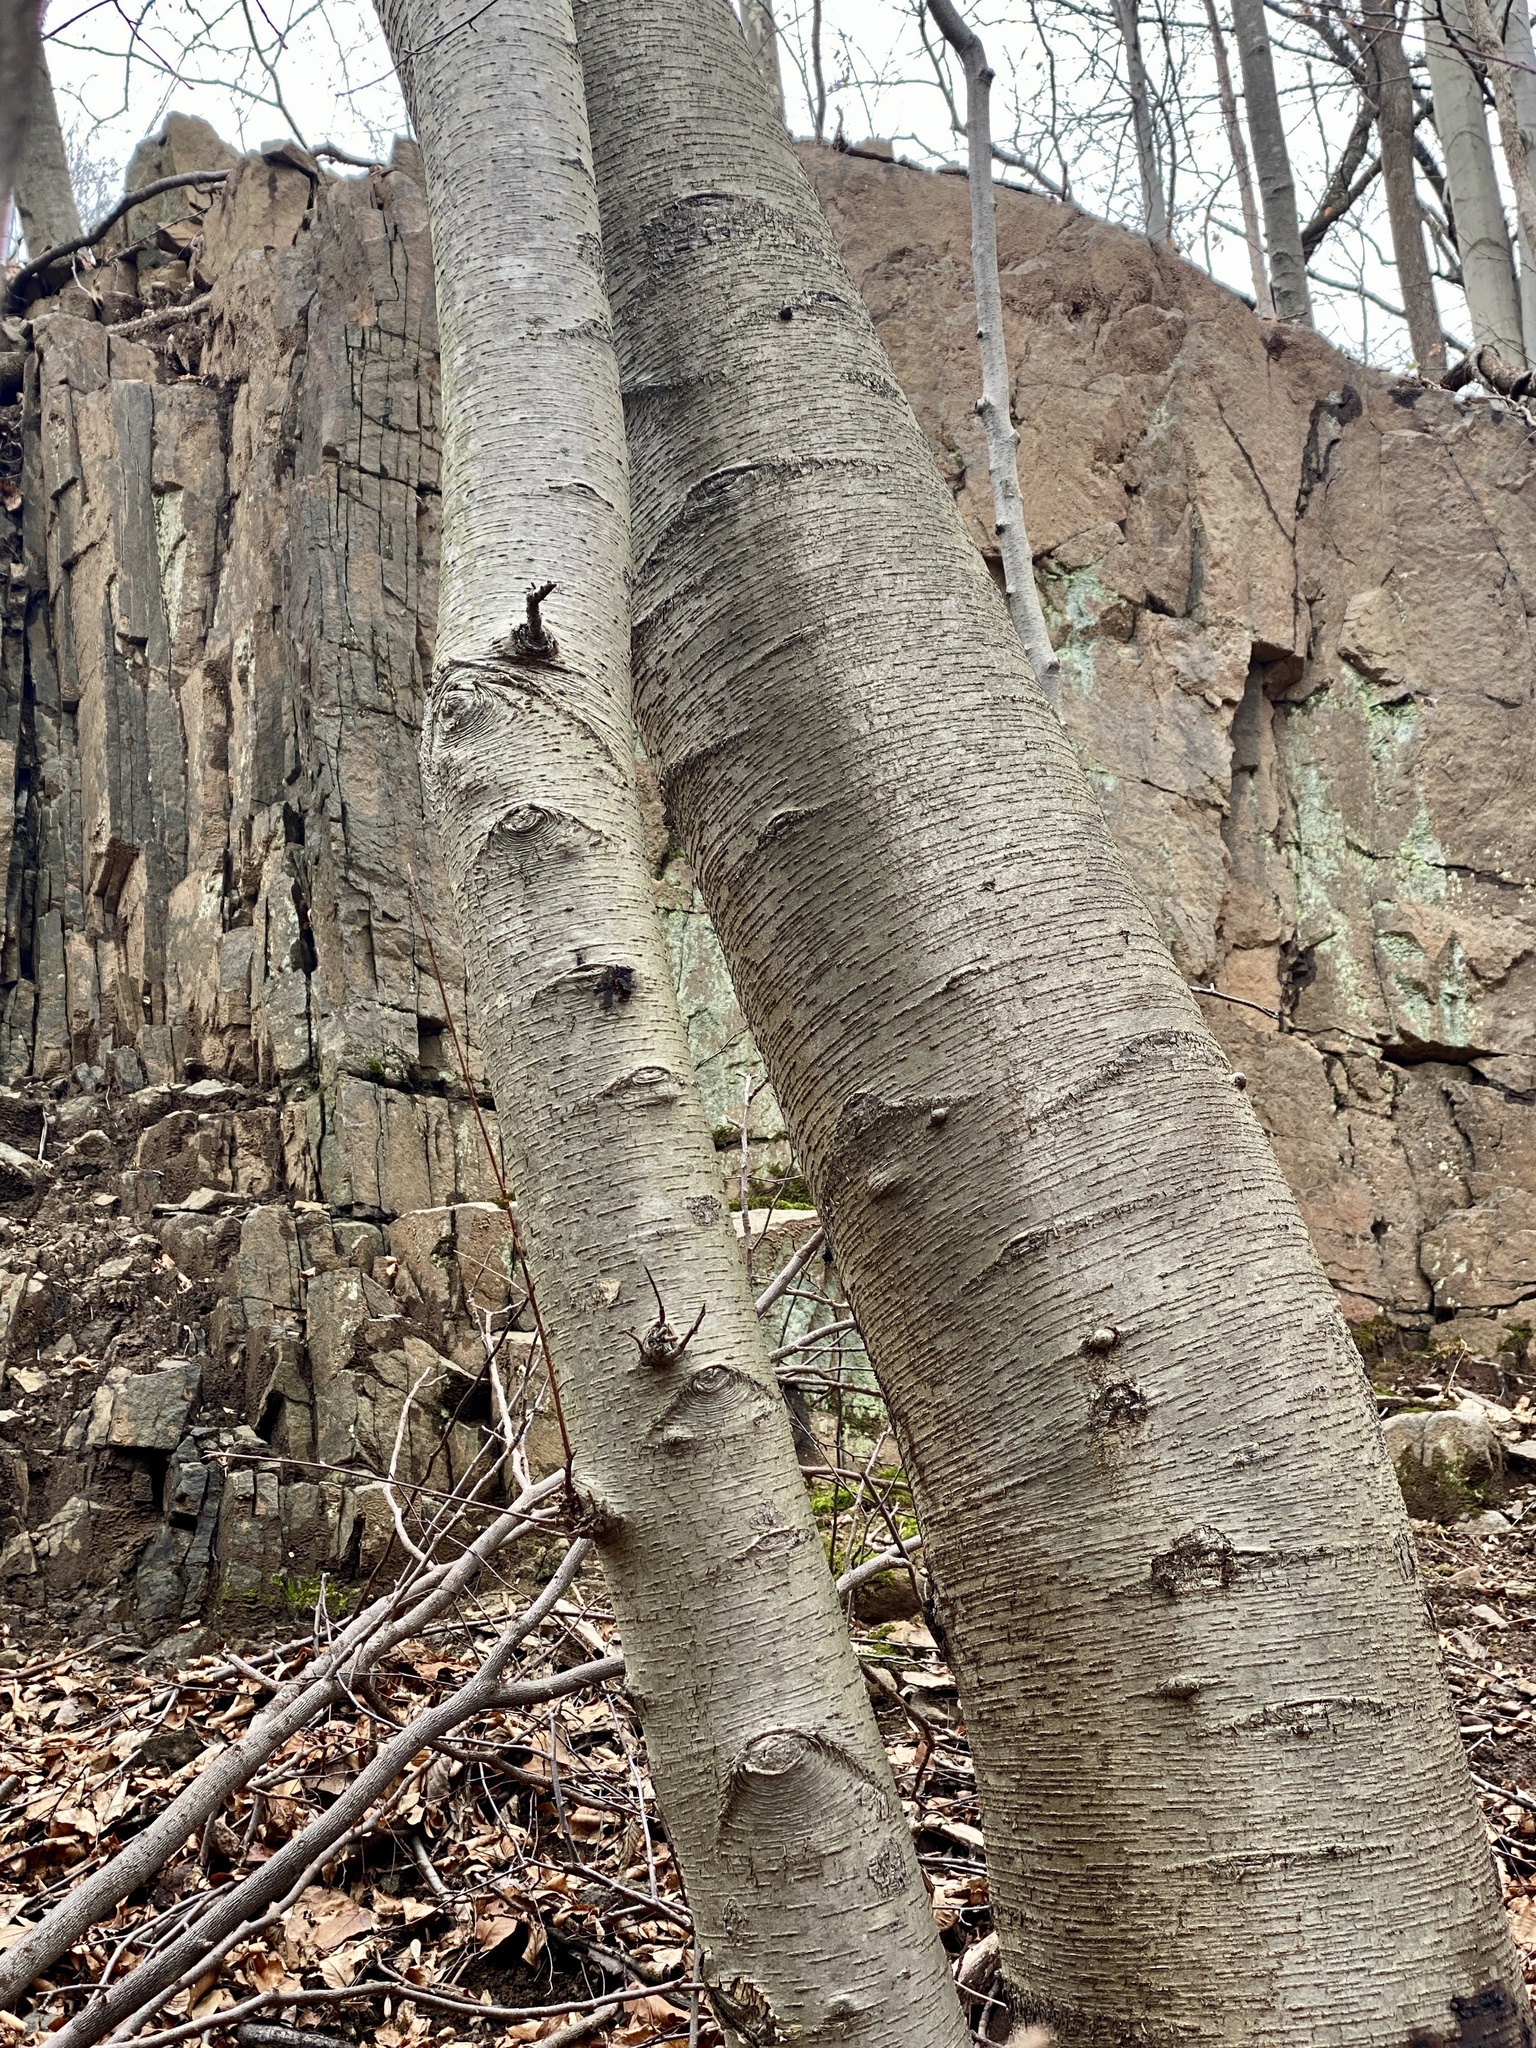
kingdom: Plantae
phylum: Tracheophyta
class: Magnoliopsida
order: Fagales
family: Betulaceae
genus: Betula
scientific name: Betula lenta
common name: Black birch
